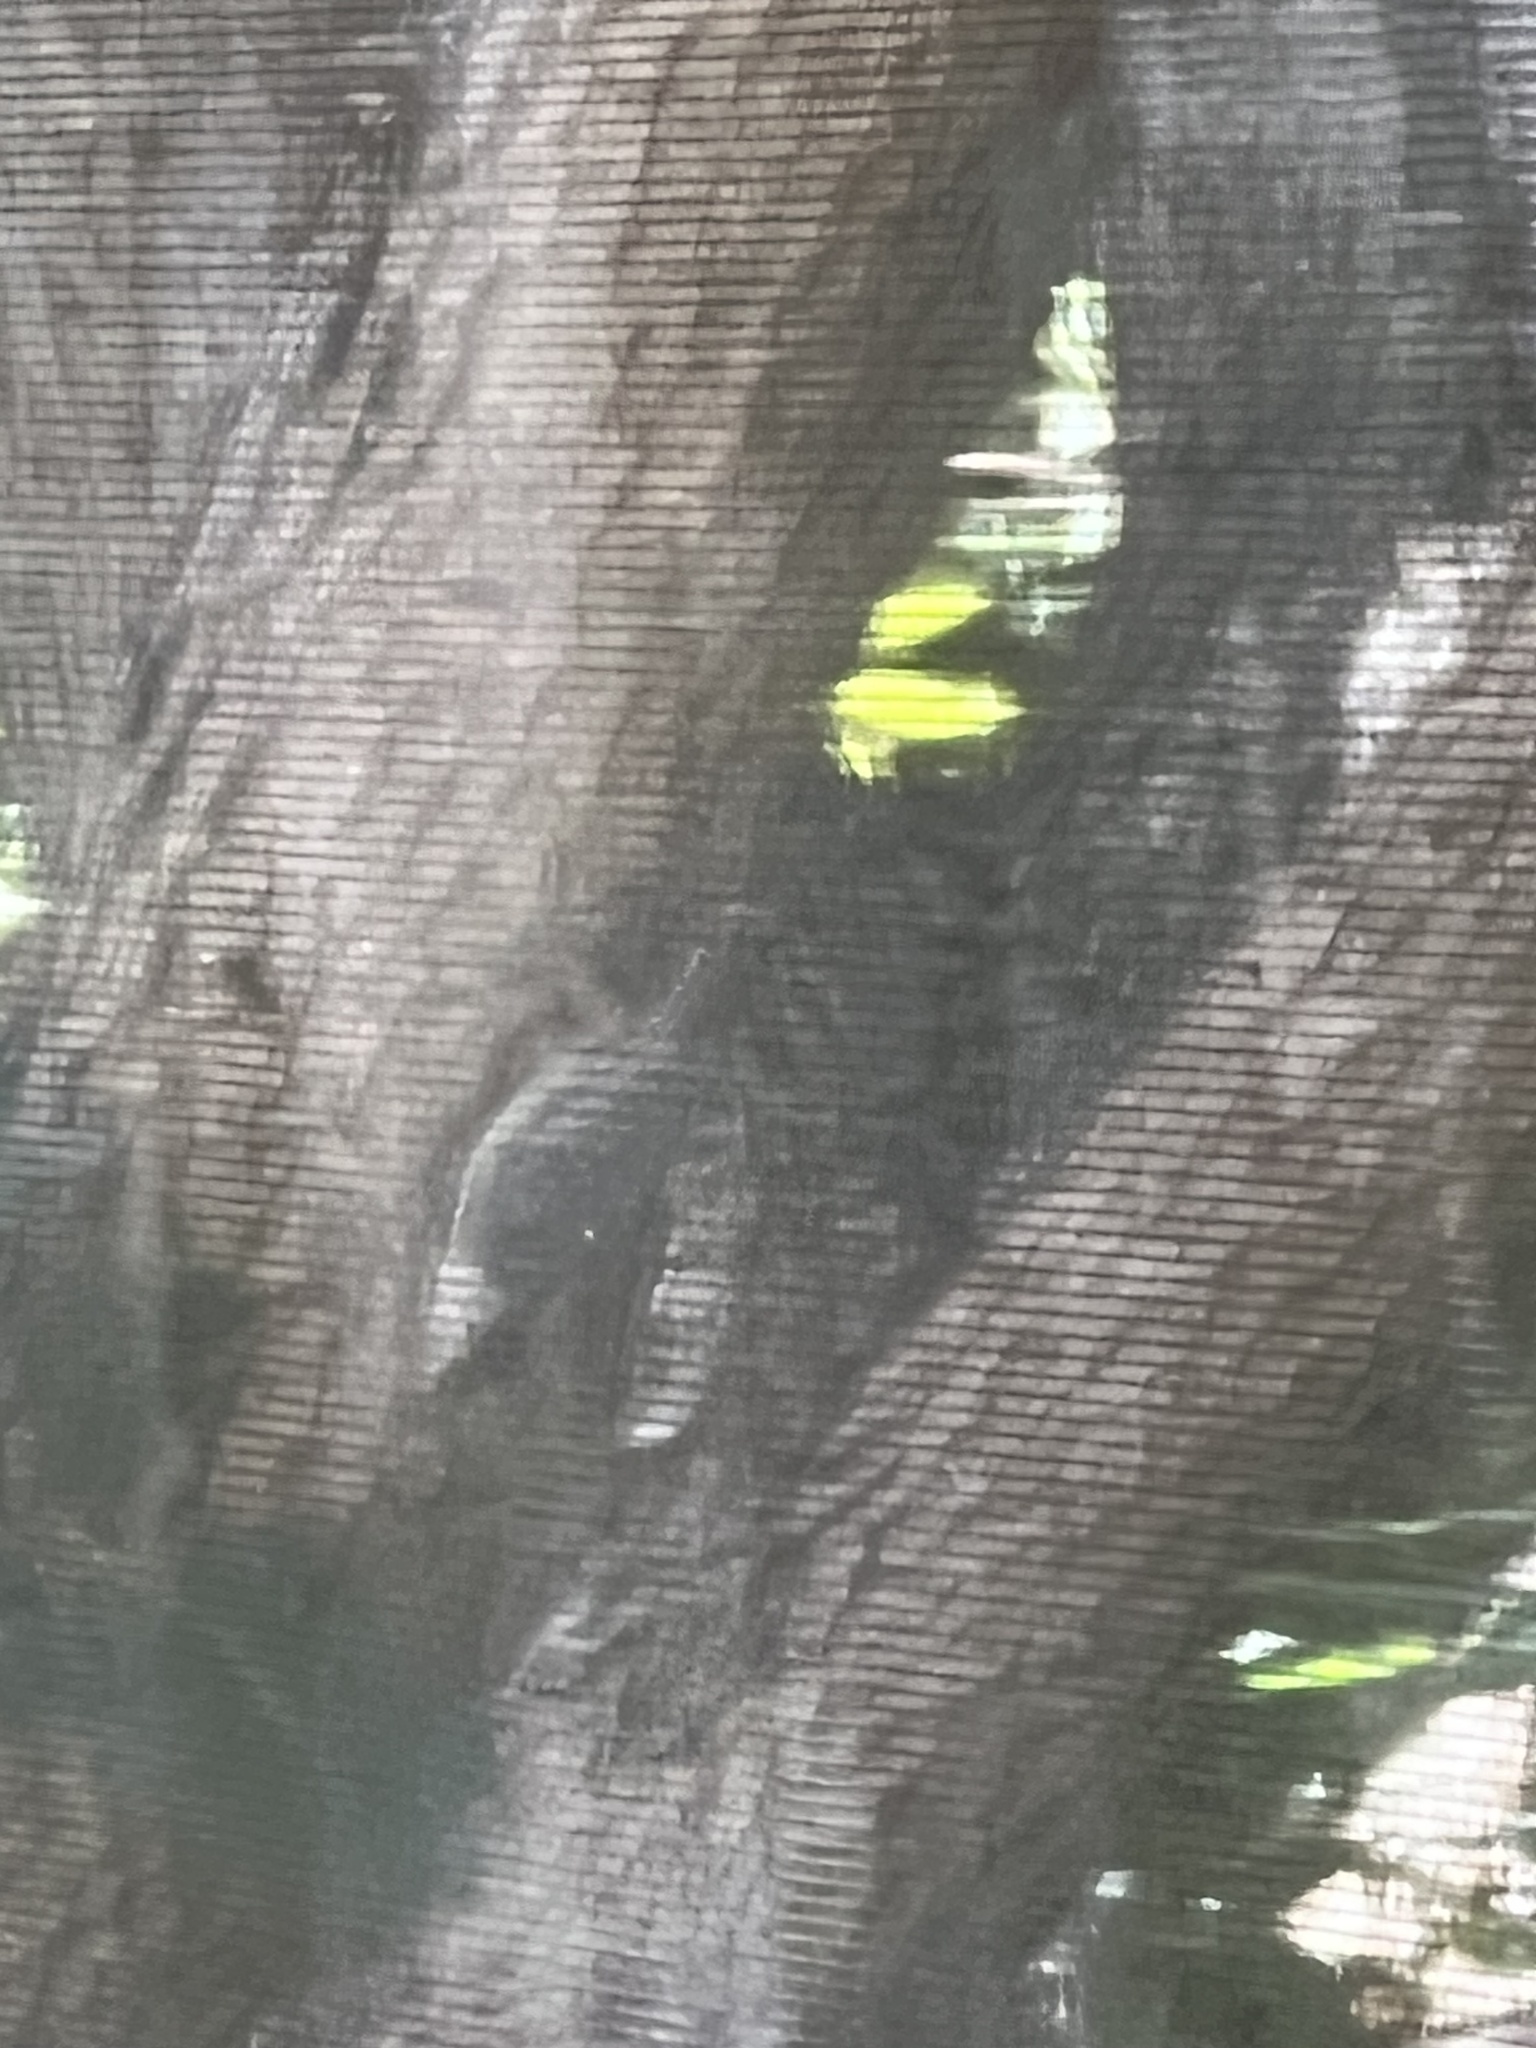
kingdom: Animalia
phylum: Chordata
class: Aves
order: Passeriformes
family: Sittidae
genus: Sitta
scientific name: Sitta carolinensis
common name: White-breasted nuthatch
